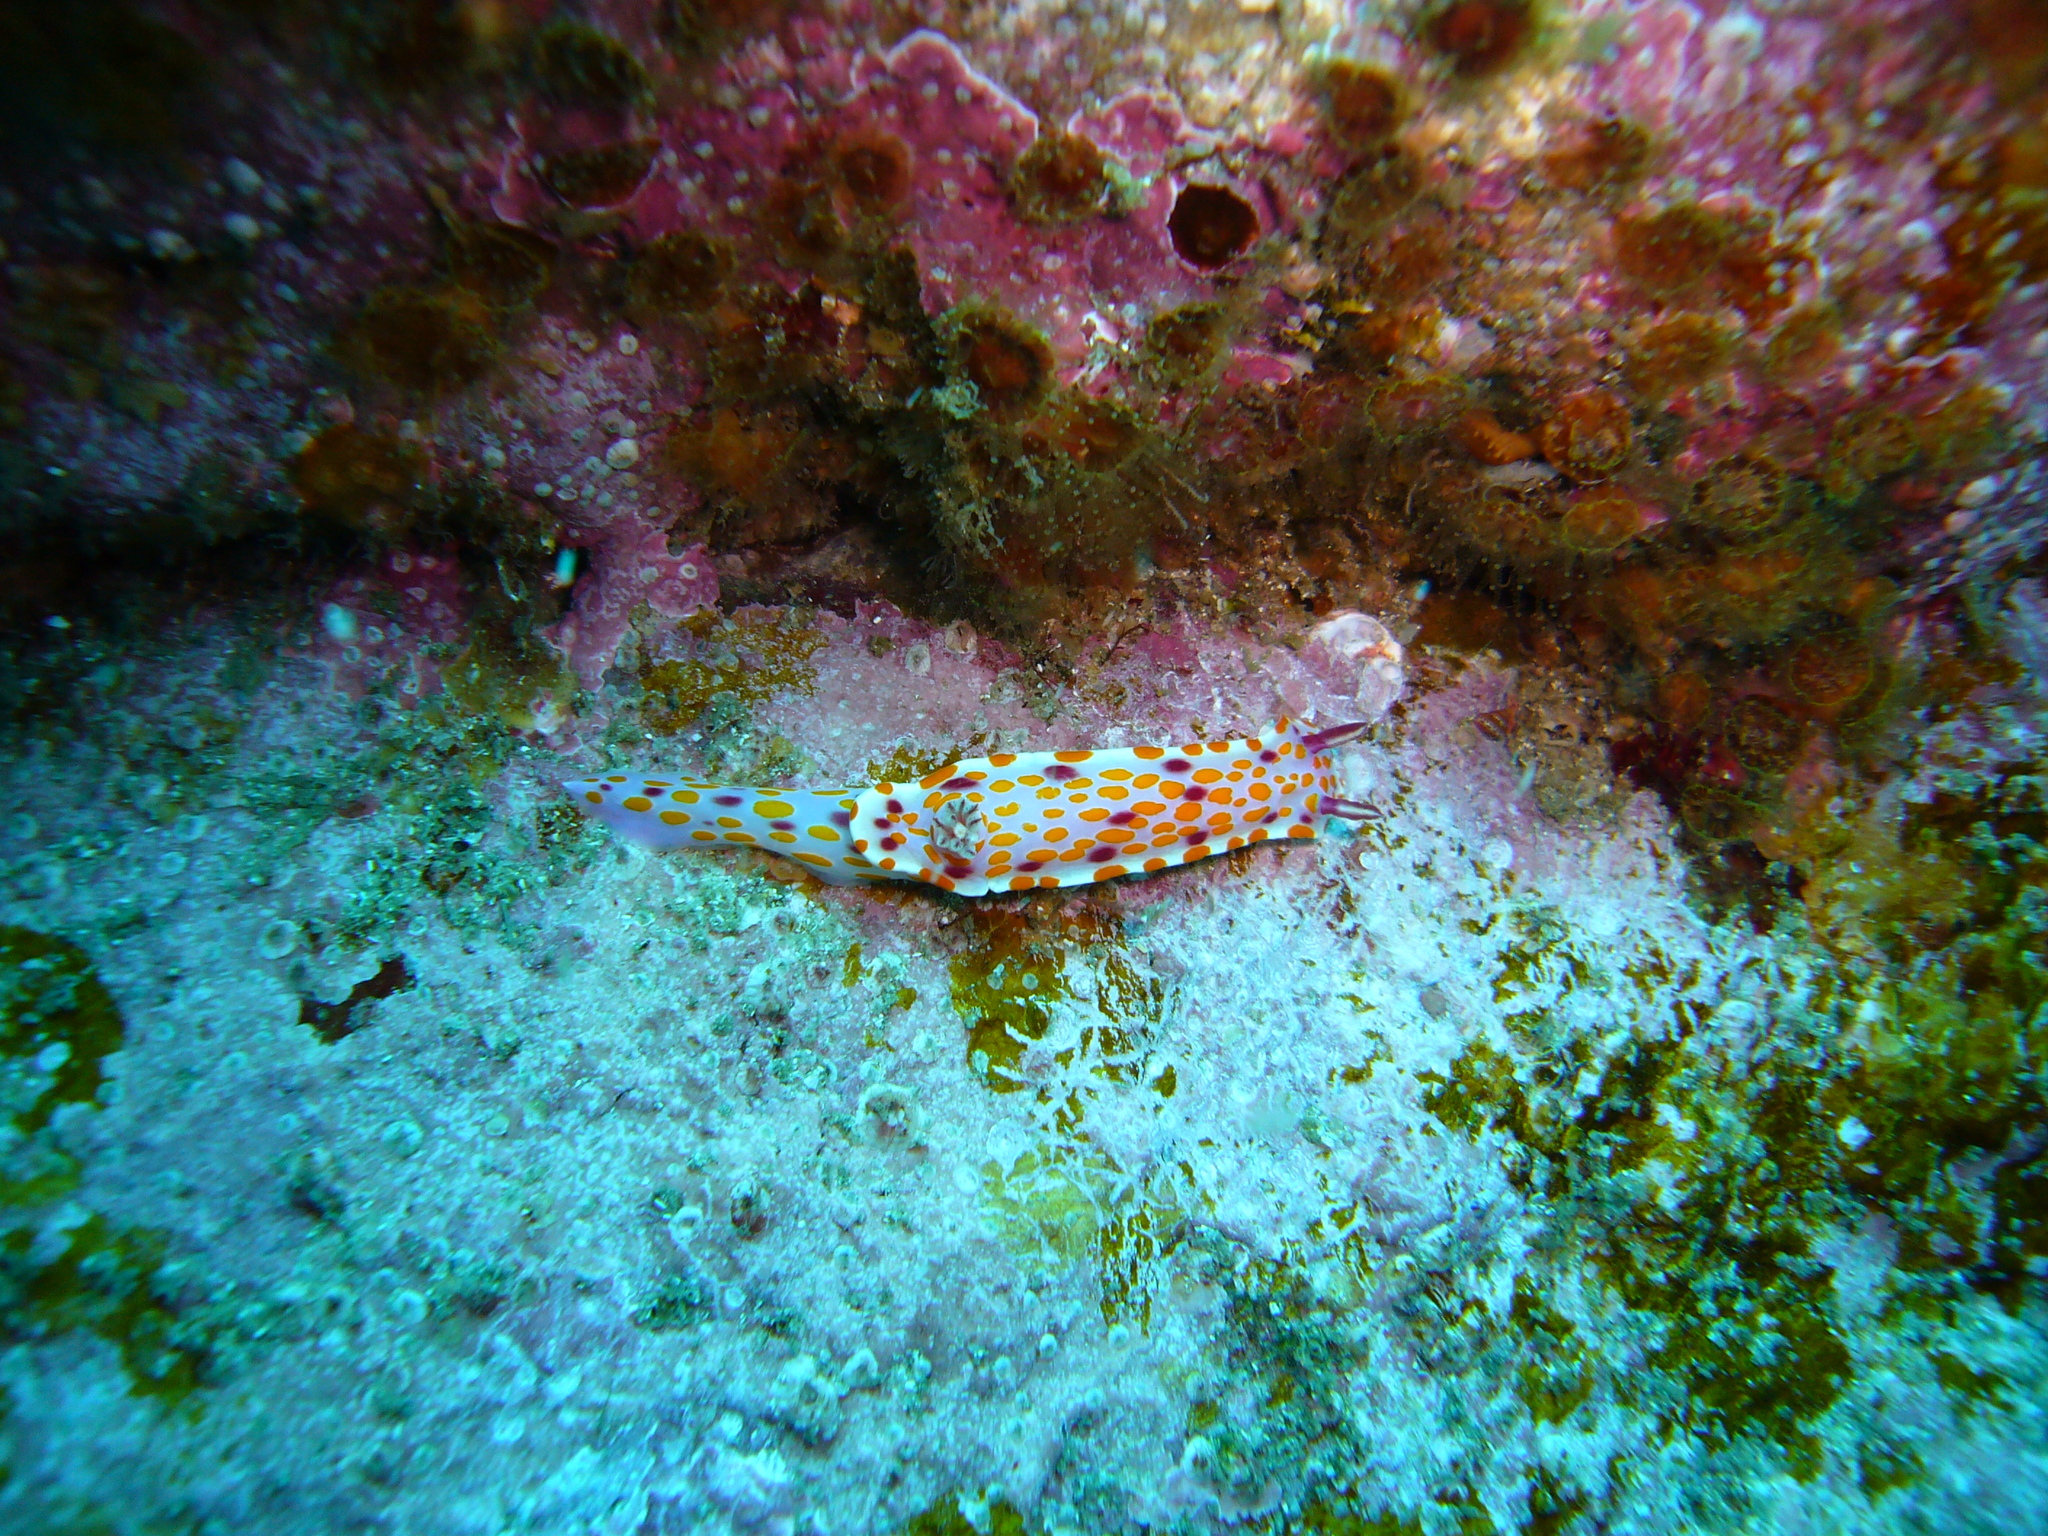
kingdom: Animalia
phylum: Mollusca
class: Gastropoda
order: Nudibranchia
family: Chromodorididae
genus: Ceratosoma
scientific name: Ceratosoma amoenum
